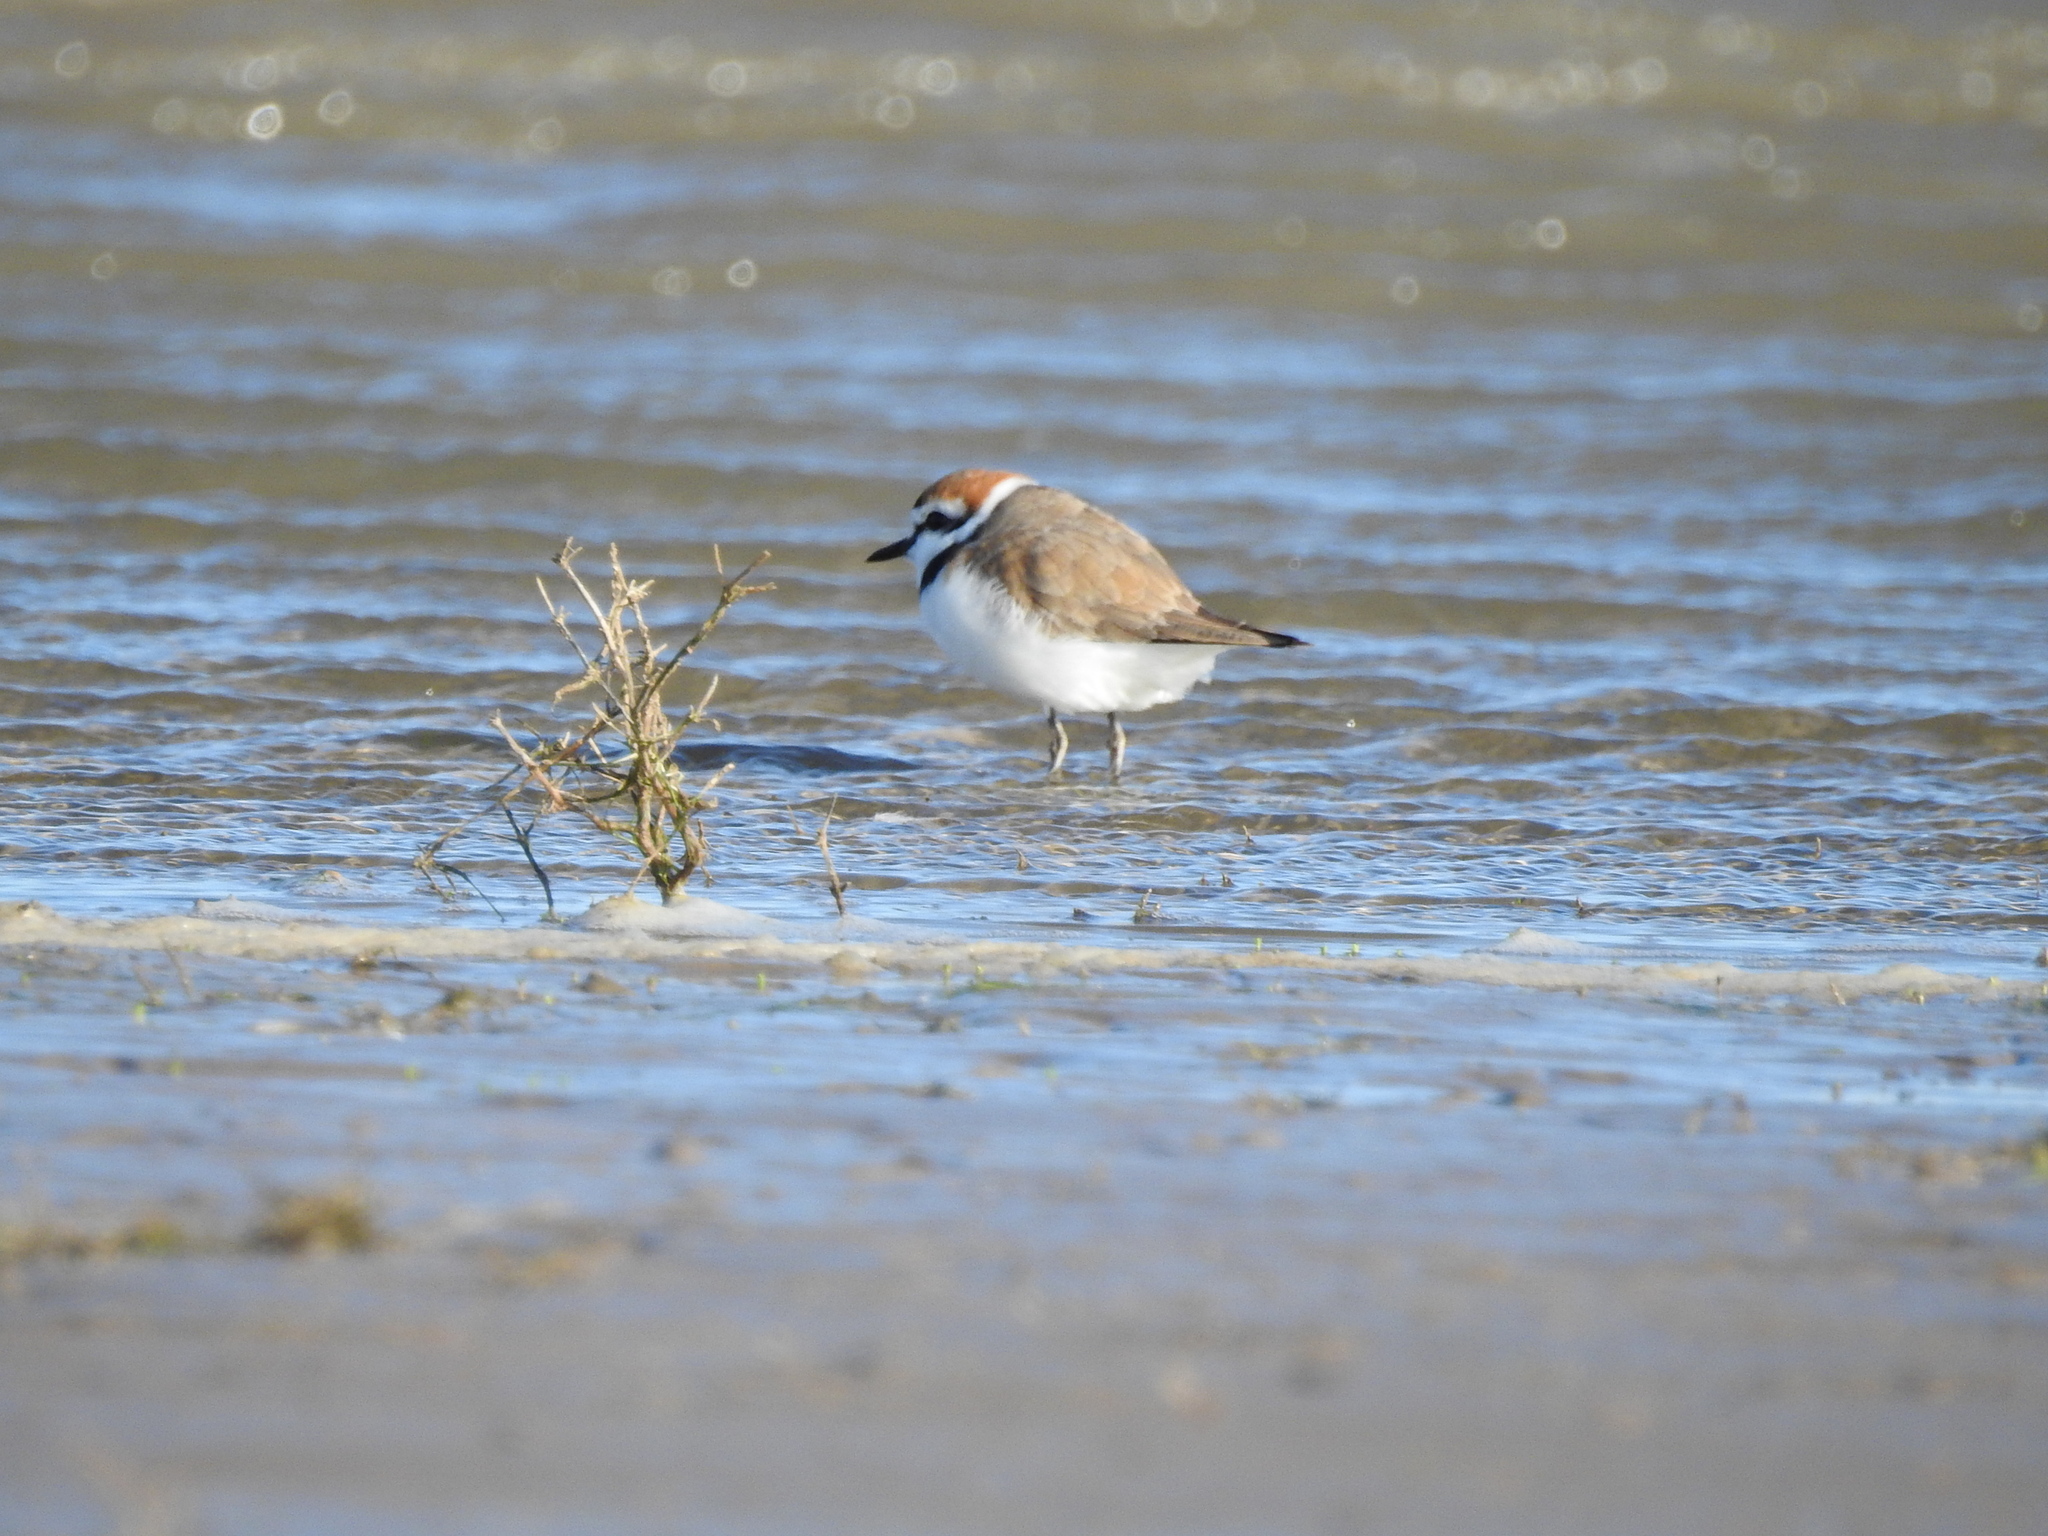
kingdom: Animalia
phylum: Chordata
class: Aves
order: Charadriiformes
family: Charadriidae
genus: Charadrius
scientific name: Charadrius alexandrinus
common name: Kentish plover
